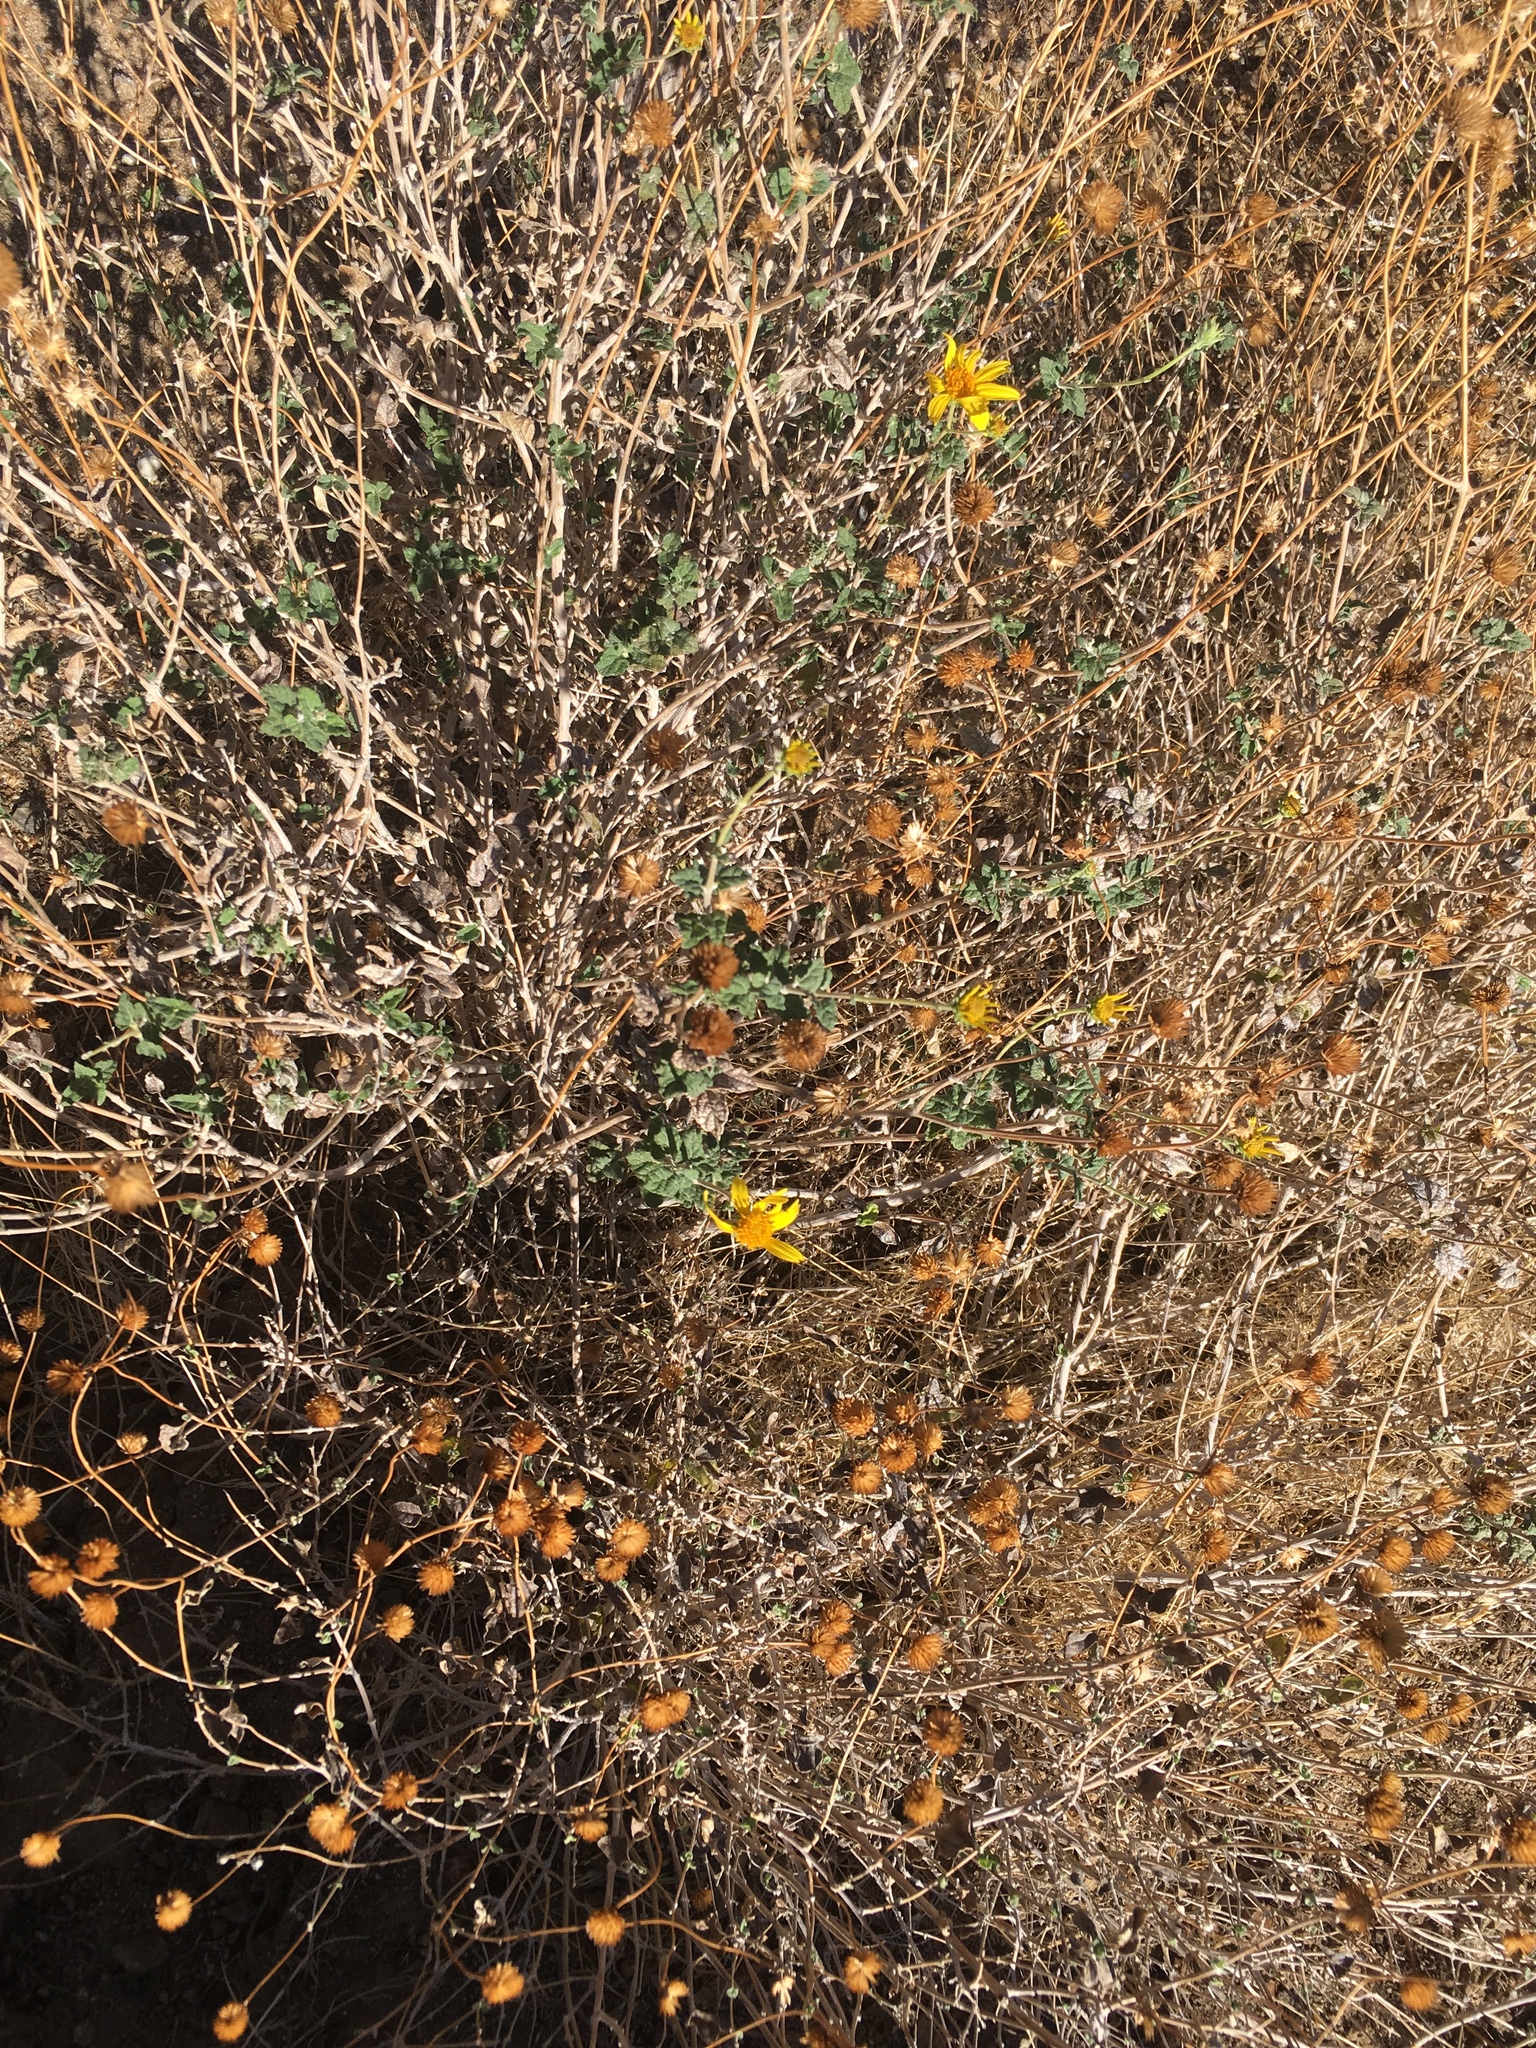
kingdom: Plantae
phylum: Tracheophyta
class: Magnoliopsida
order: Asterales
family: Asteraceae
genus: Bahiopsis
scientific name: Bahiopsis parishii
